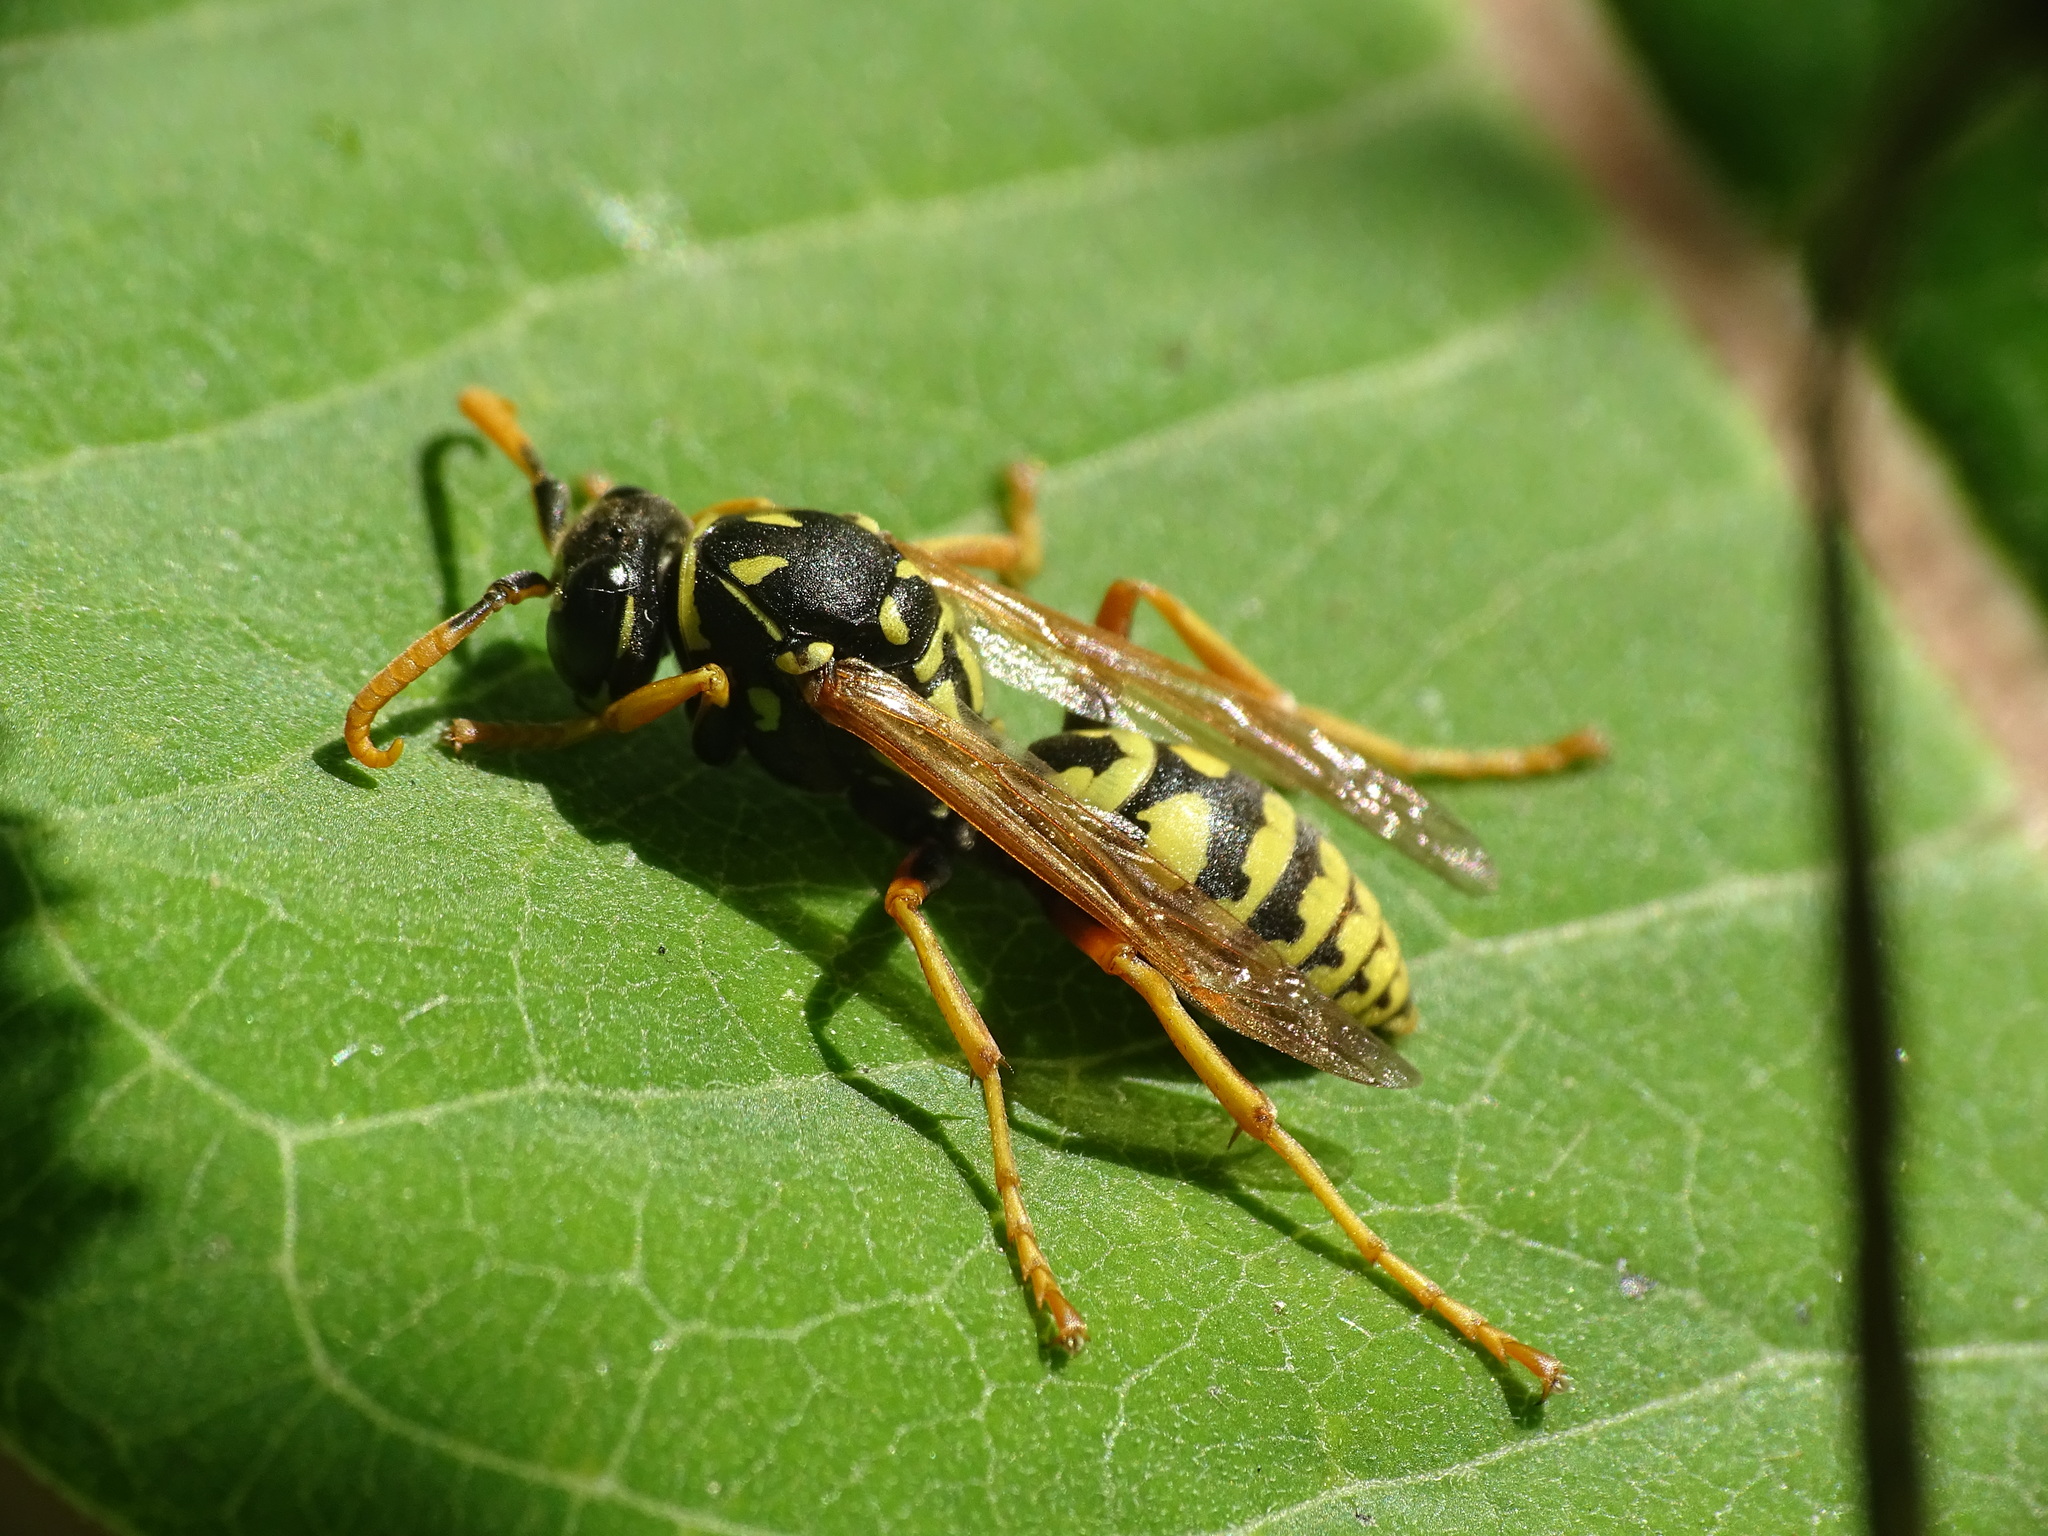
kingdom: Animalia
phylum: Arthropoda
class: Insecta
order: Hymenoptera
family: Eumenidae
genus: Polistes
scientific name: Polistes dominula
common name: Paper wasp
